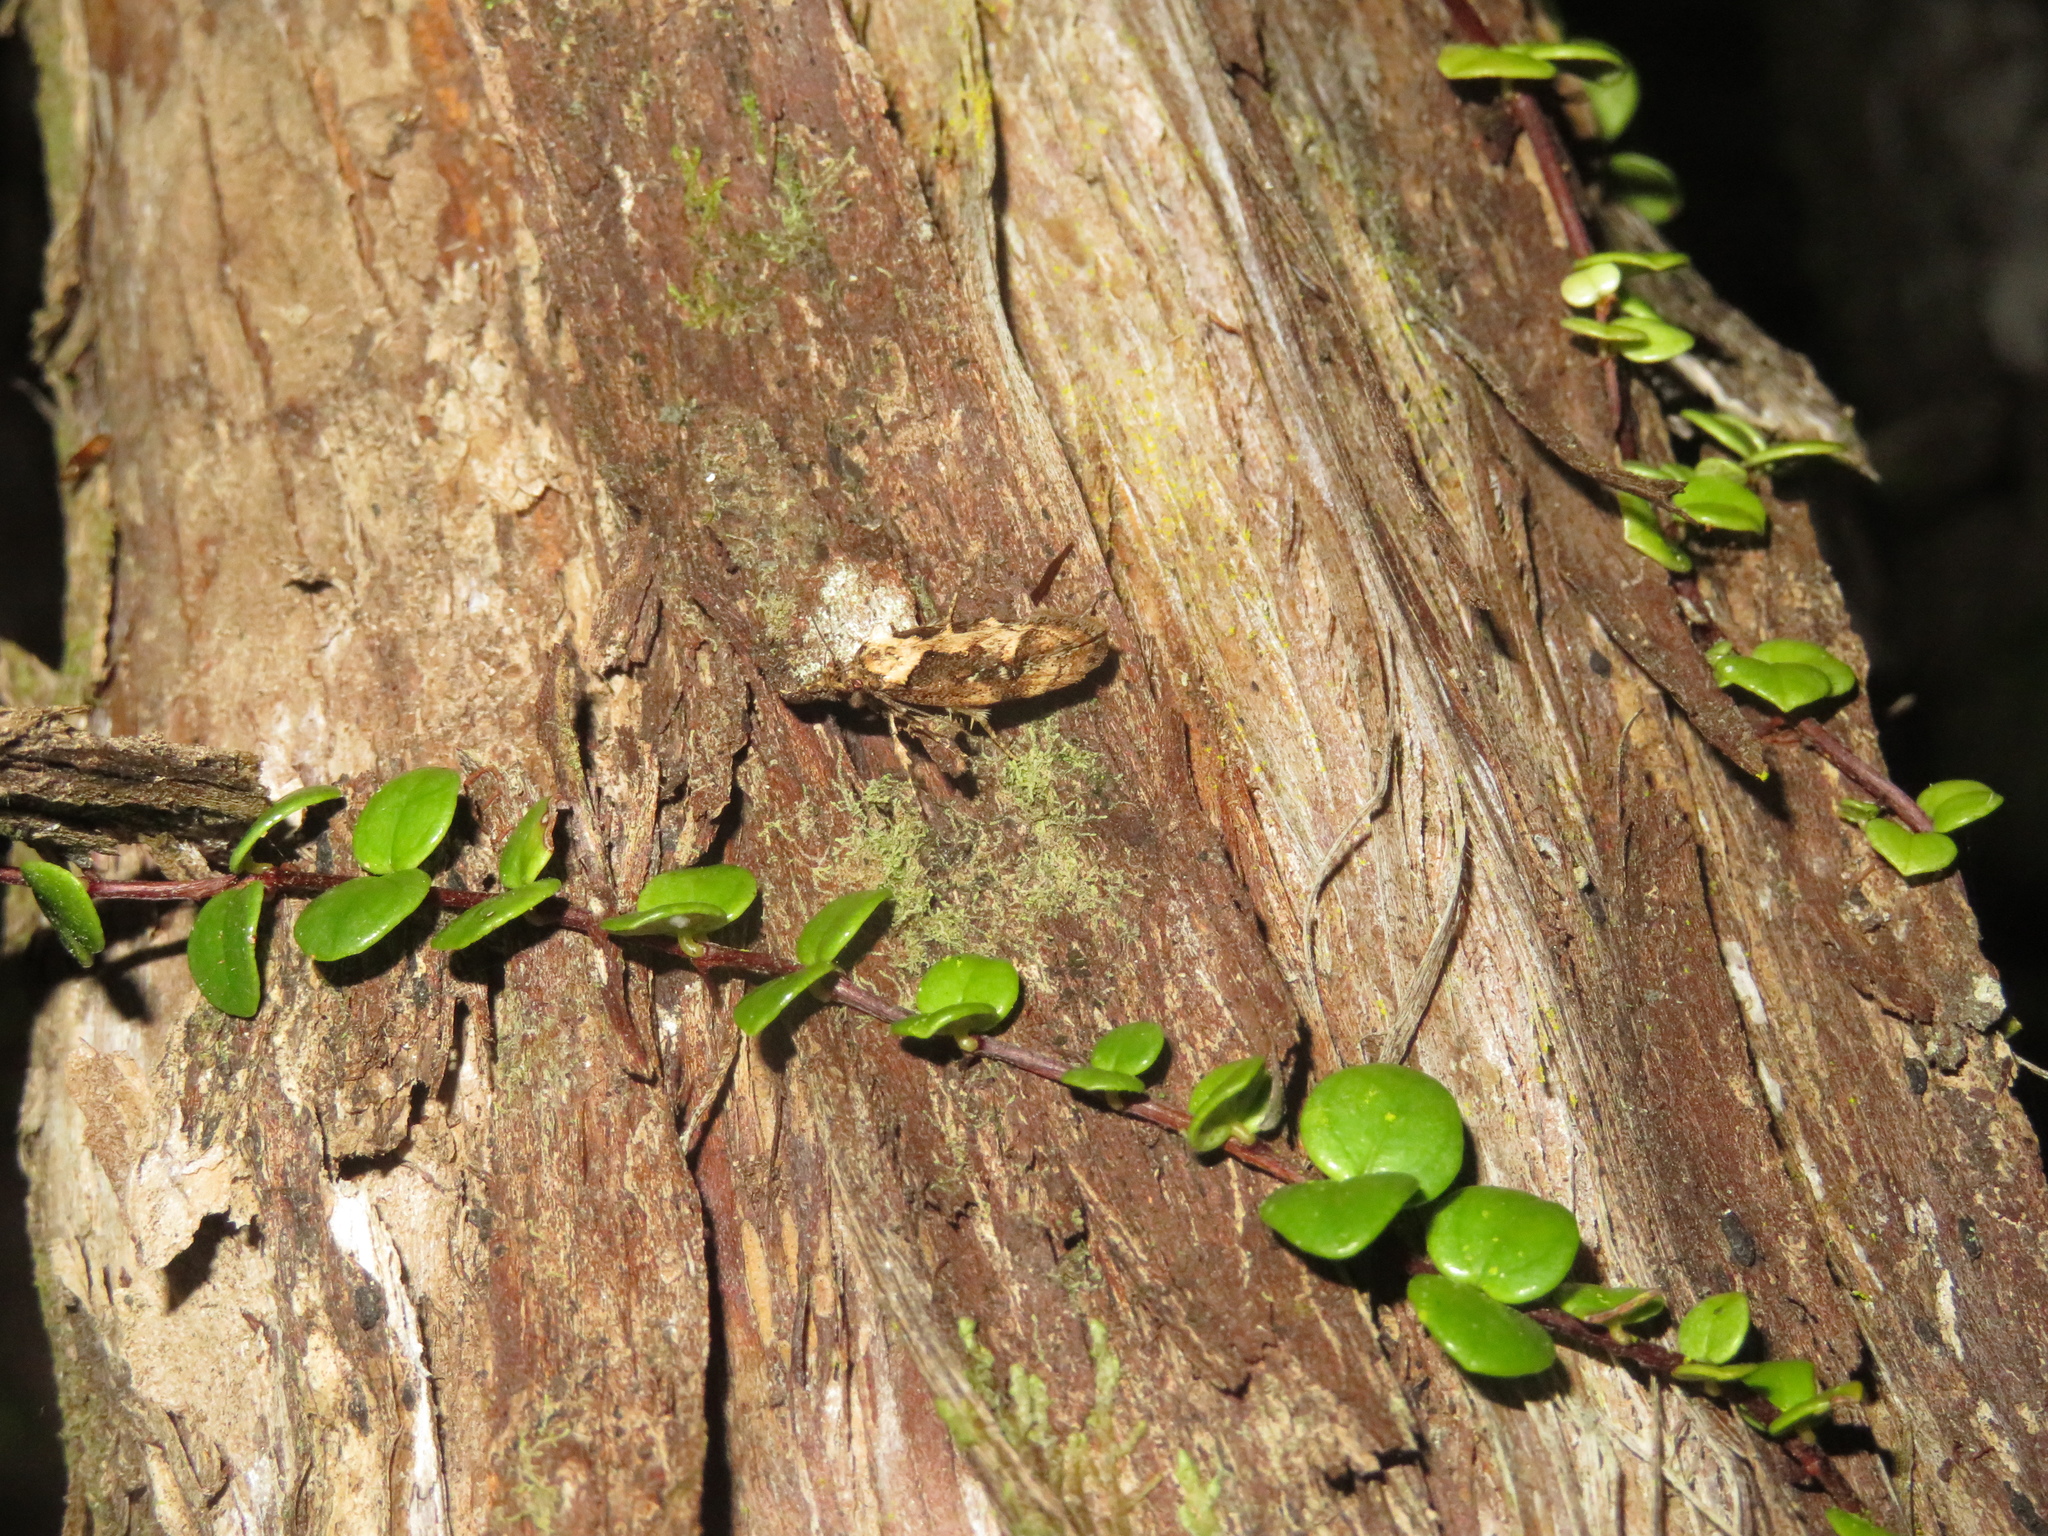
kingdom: Animalia
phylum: Arthropoda
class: Insecta
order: Lepidoptera
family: Oecophoridae
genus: Atomotricha
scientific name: Atomotricha isogama
